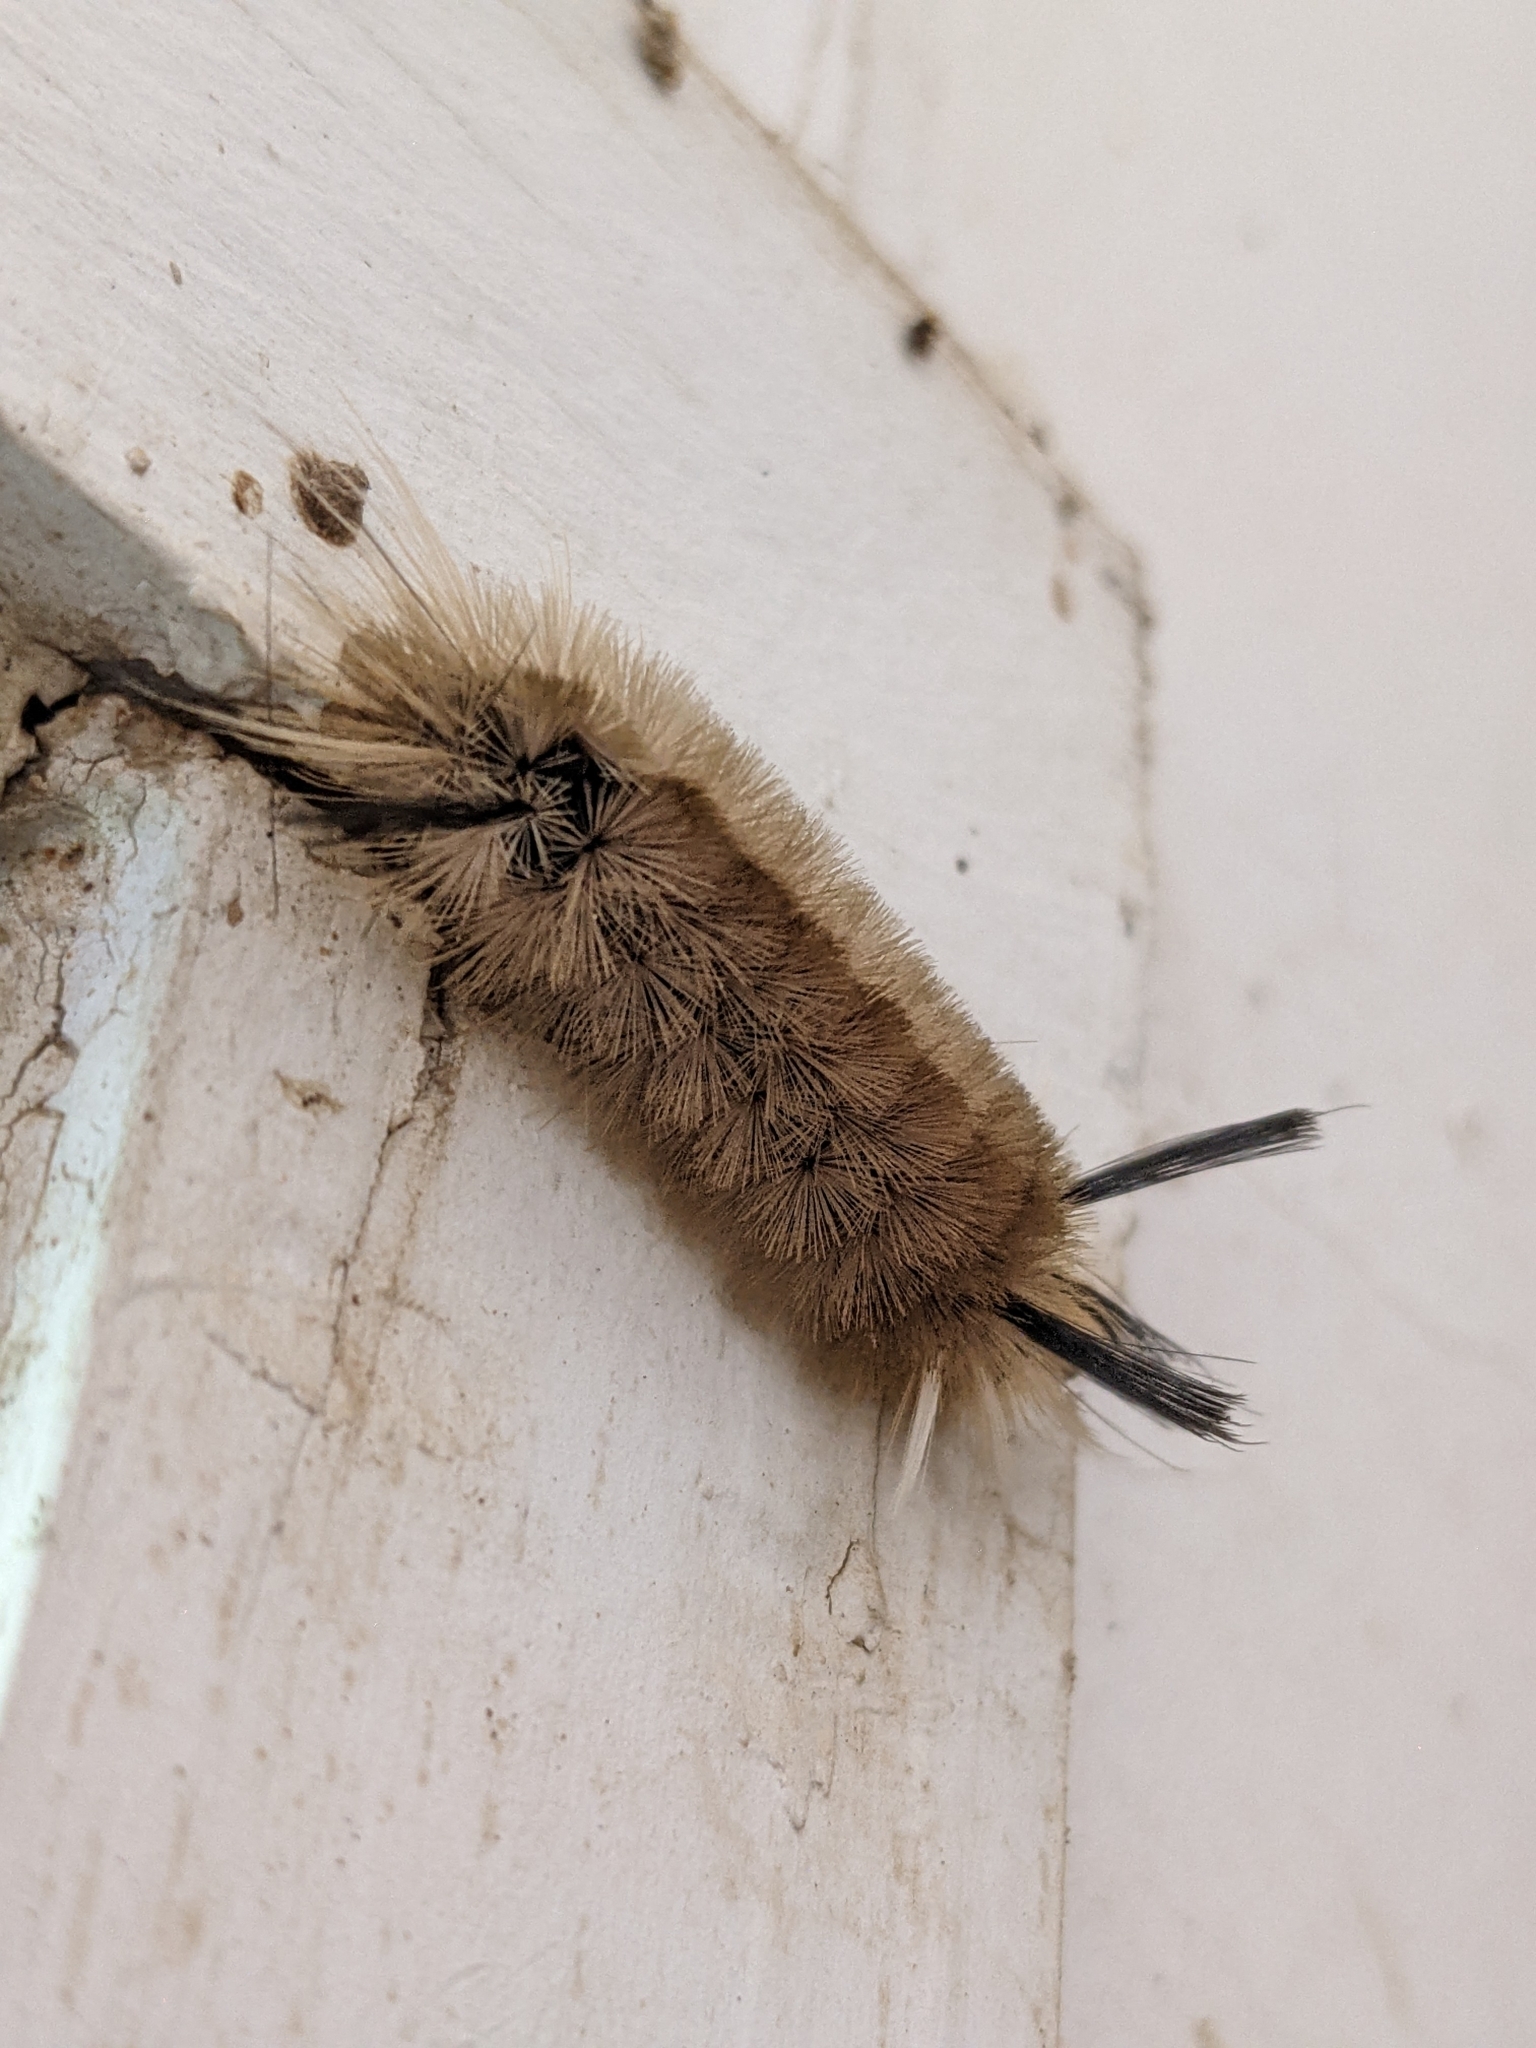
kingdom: Animalia
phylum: Arthropoda
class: Insecta
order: Lepidoptera
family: Erebidae
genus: Halysidota
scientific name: Halysidota tessellaris
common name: Banded tussock moth
